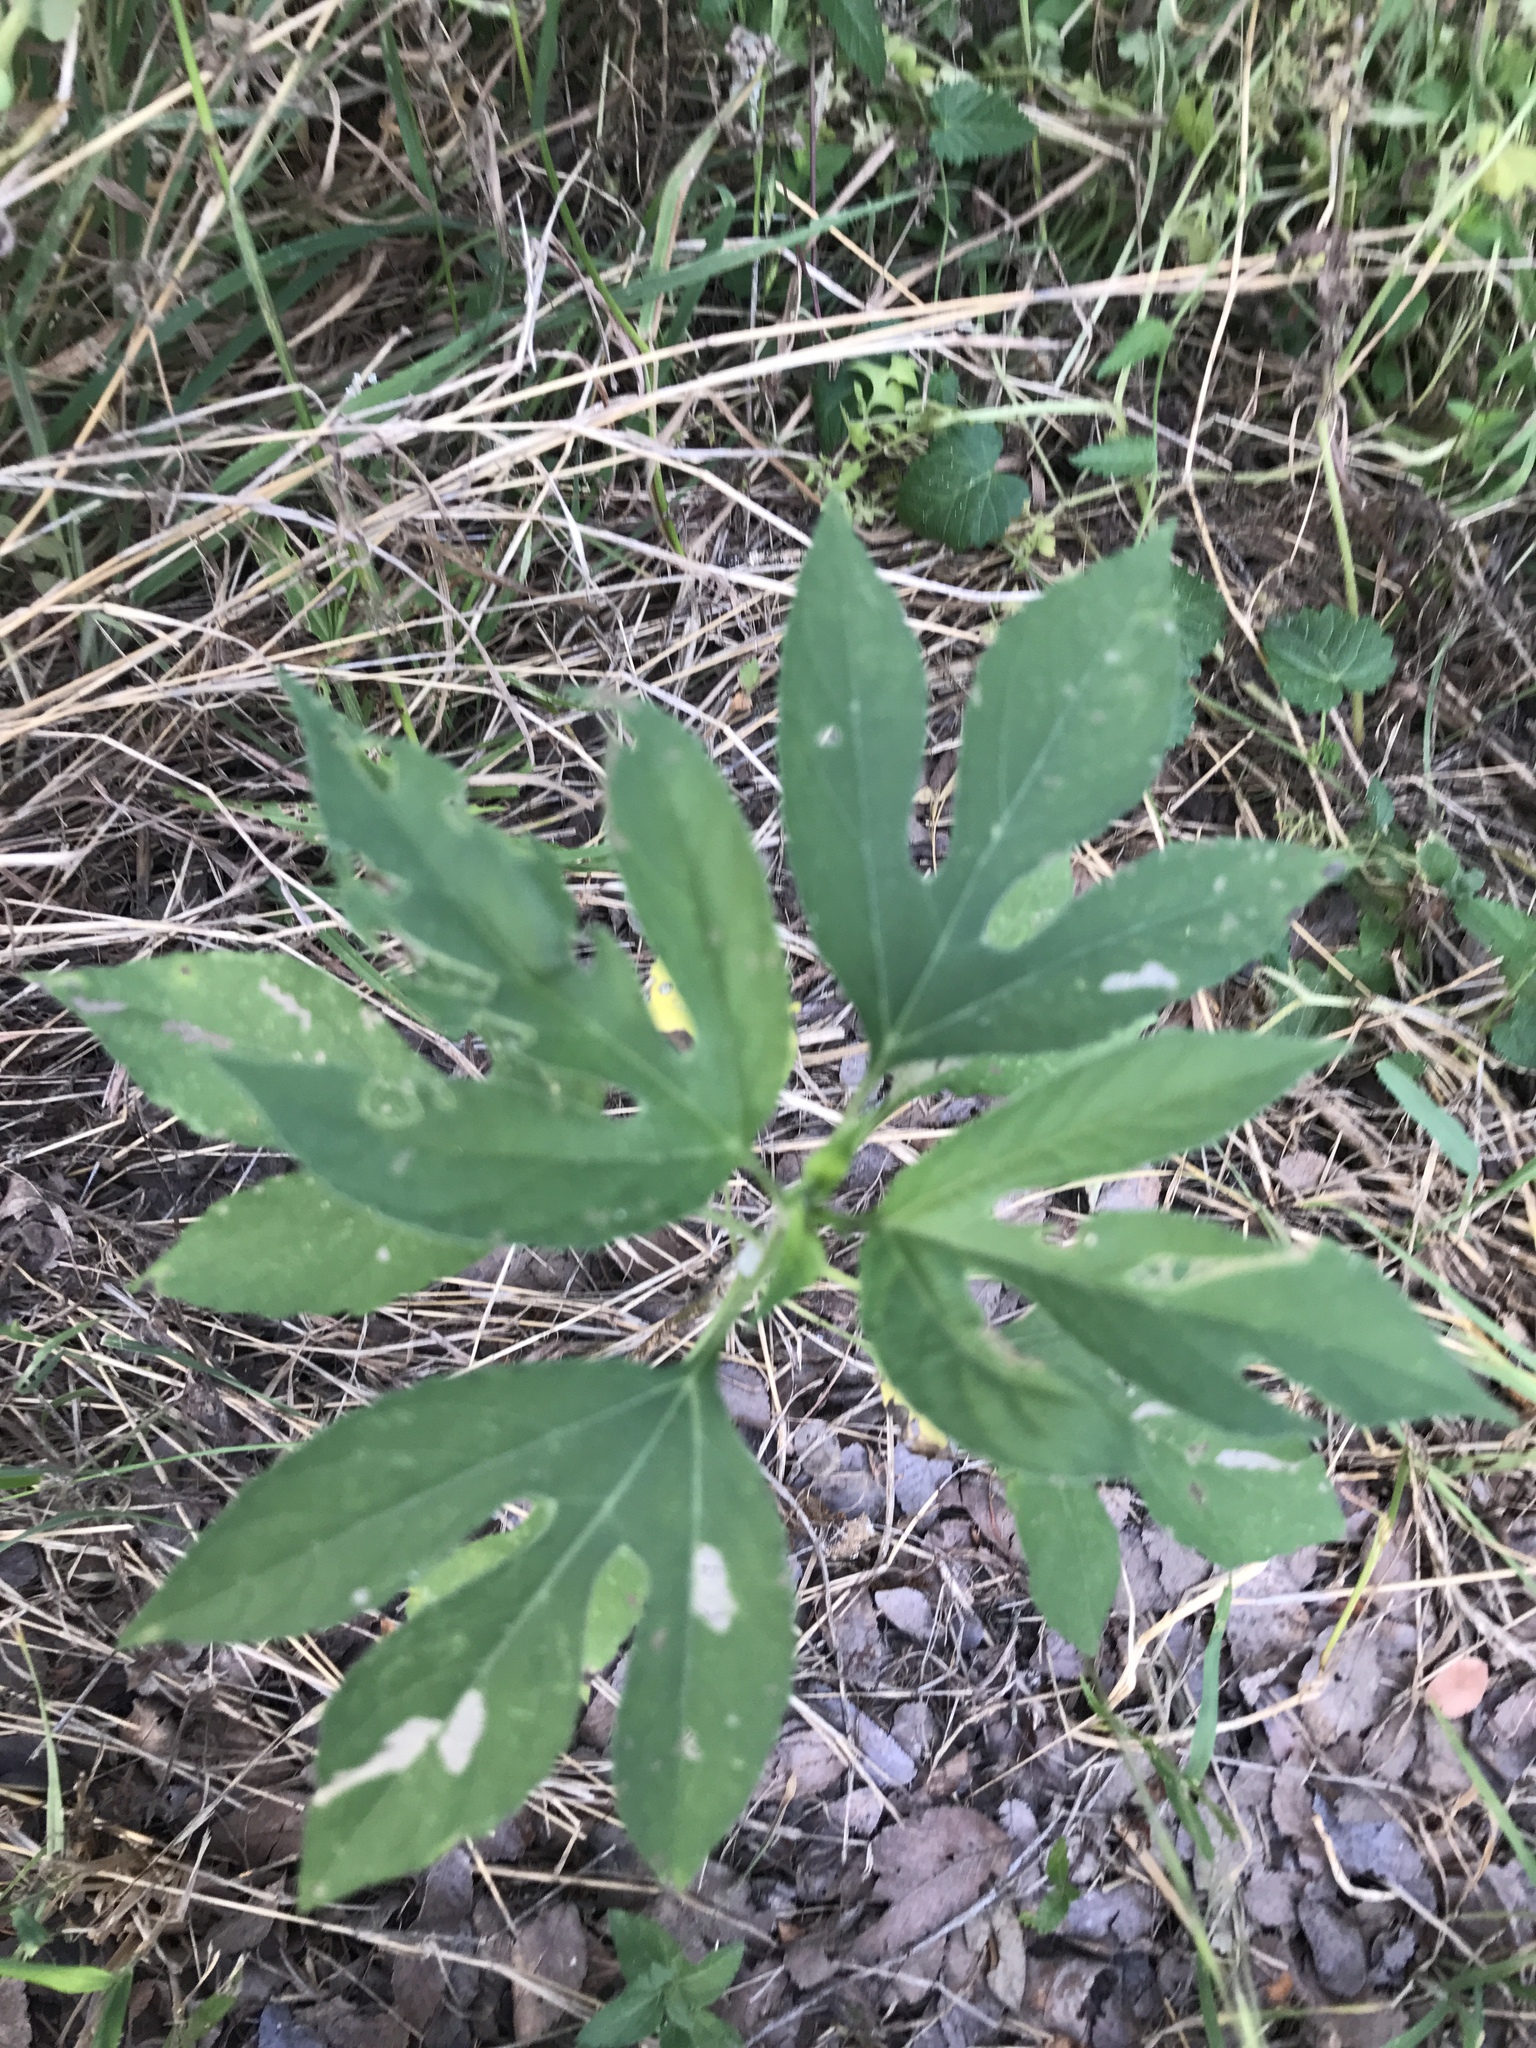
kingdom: Plantae
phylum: Tracheophyta
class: Magnoliopsida
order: Asterales
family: Asteraceae
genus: Ambrosia
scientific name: Ambrosia trifida
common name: Giant ragweed
